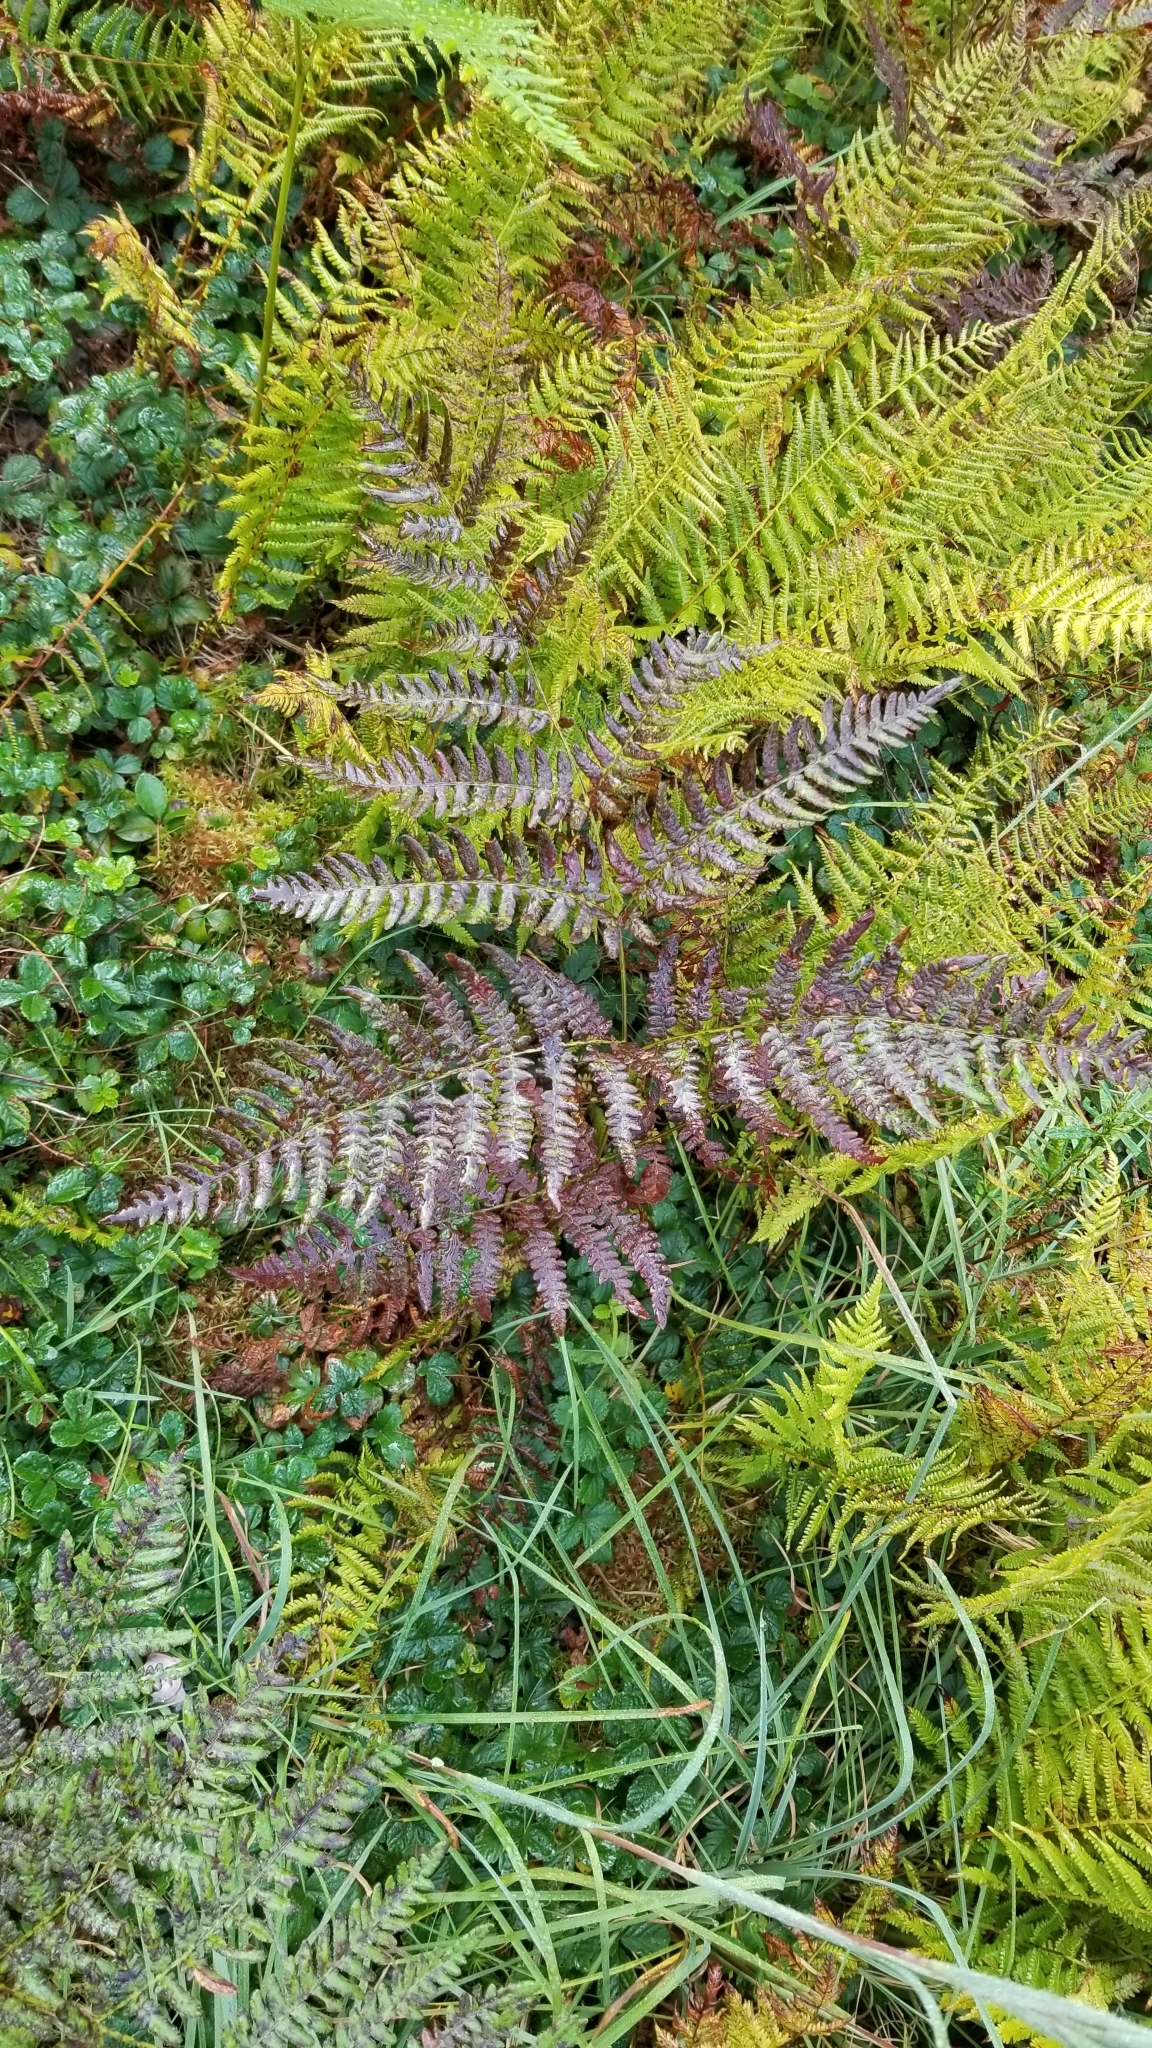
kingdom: Plantae
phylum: Tracheophyta
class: Polypodiopsida
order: Polypodiales
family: Dennstaedtiaceae
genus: Pteridium
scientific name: Pteridium aquilinum
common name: Bracken
